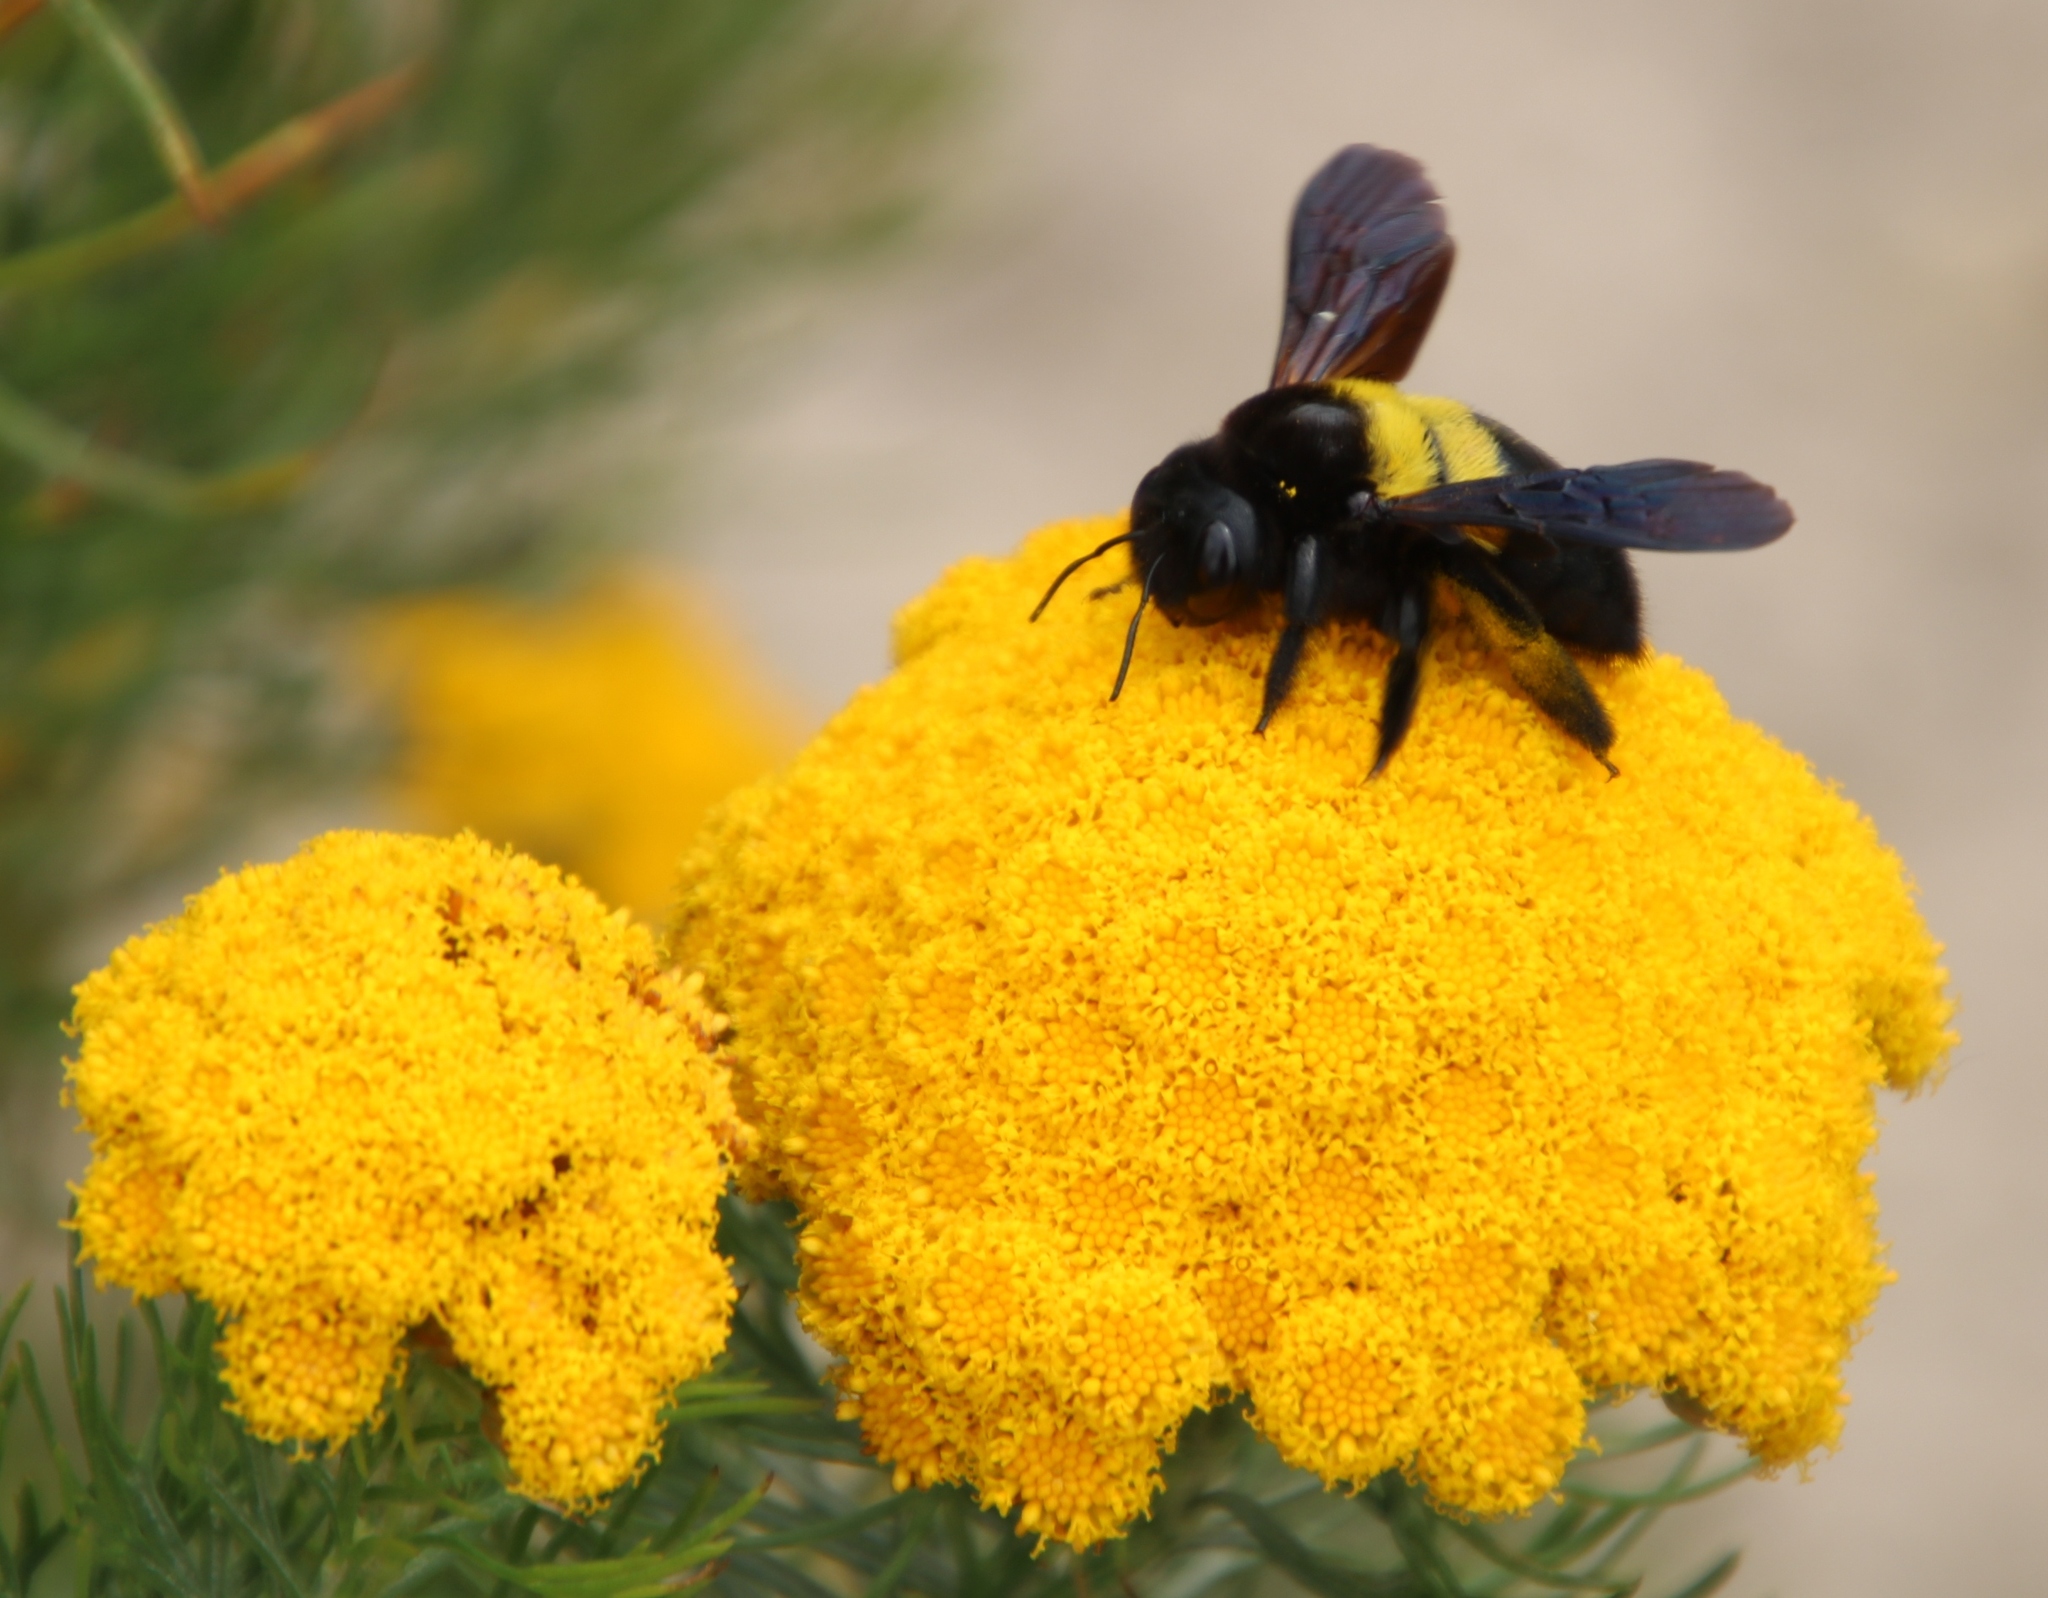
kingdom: Animalia
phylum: Arthropoda
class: Insecta
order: Hymenoptera
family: Apidae
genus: Xylocopa
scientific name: Xylocopa caffra
